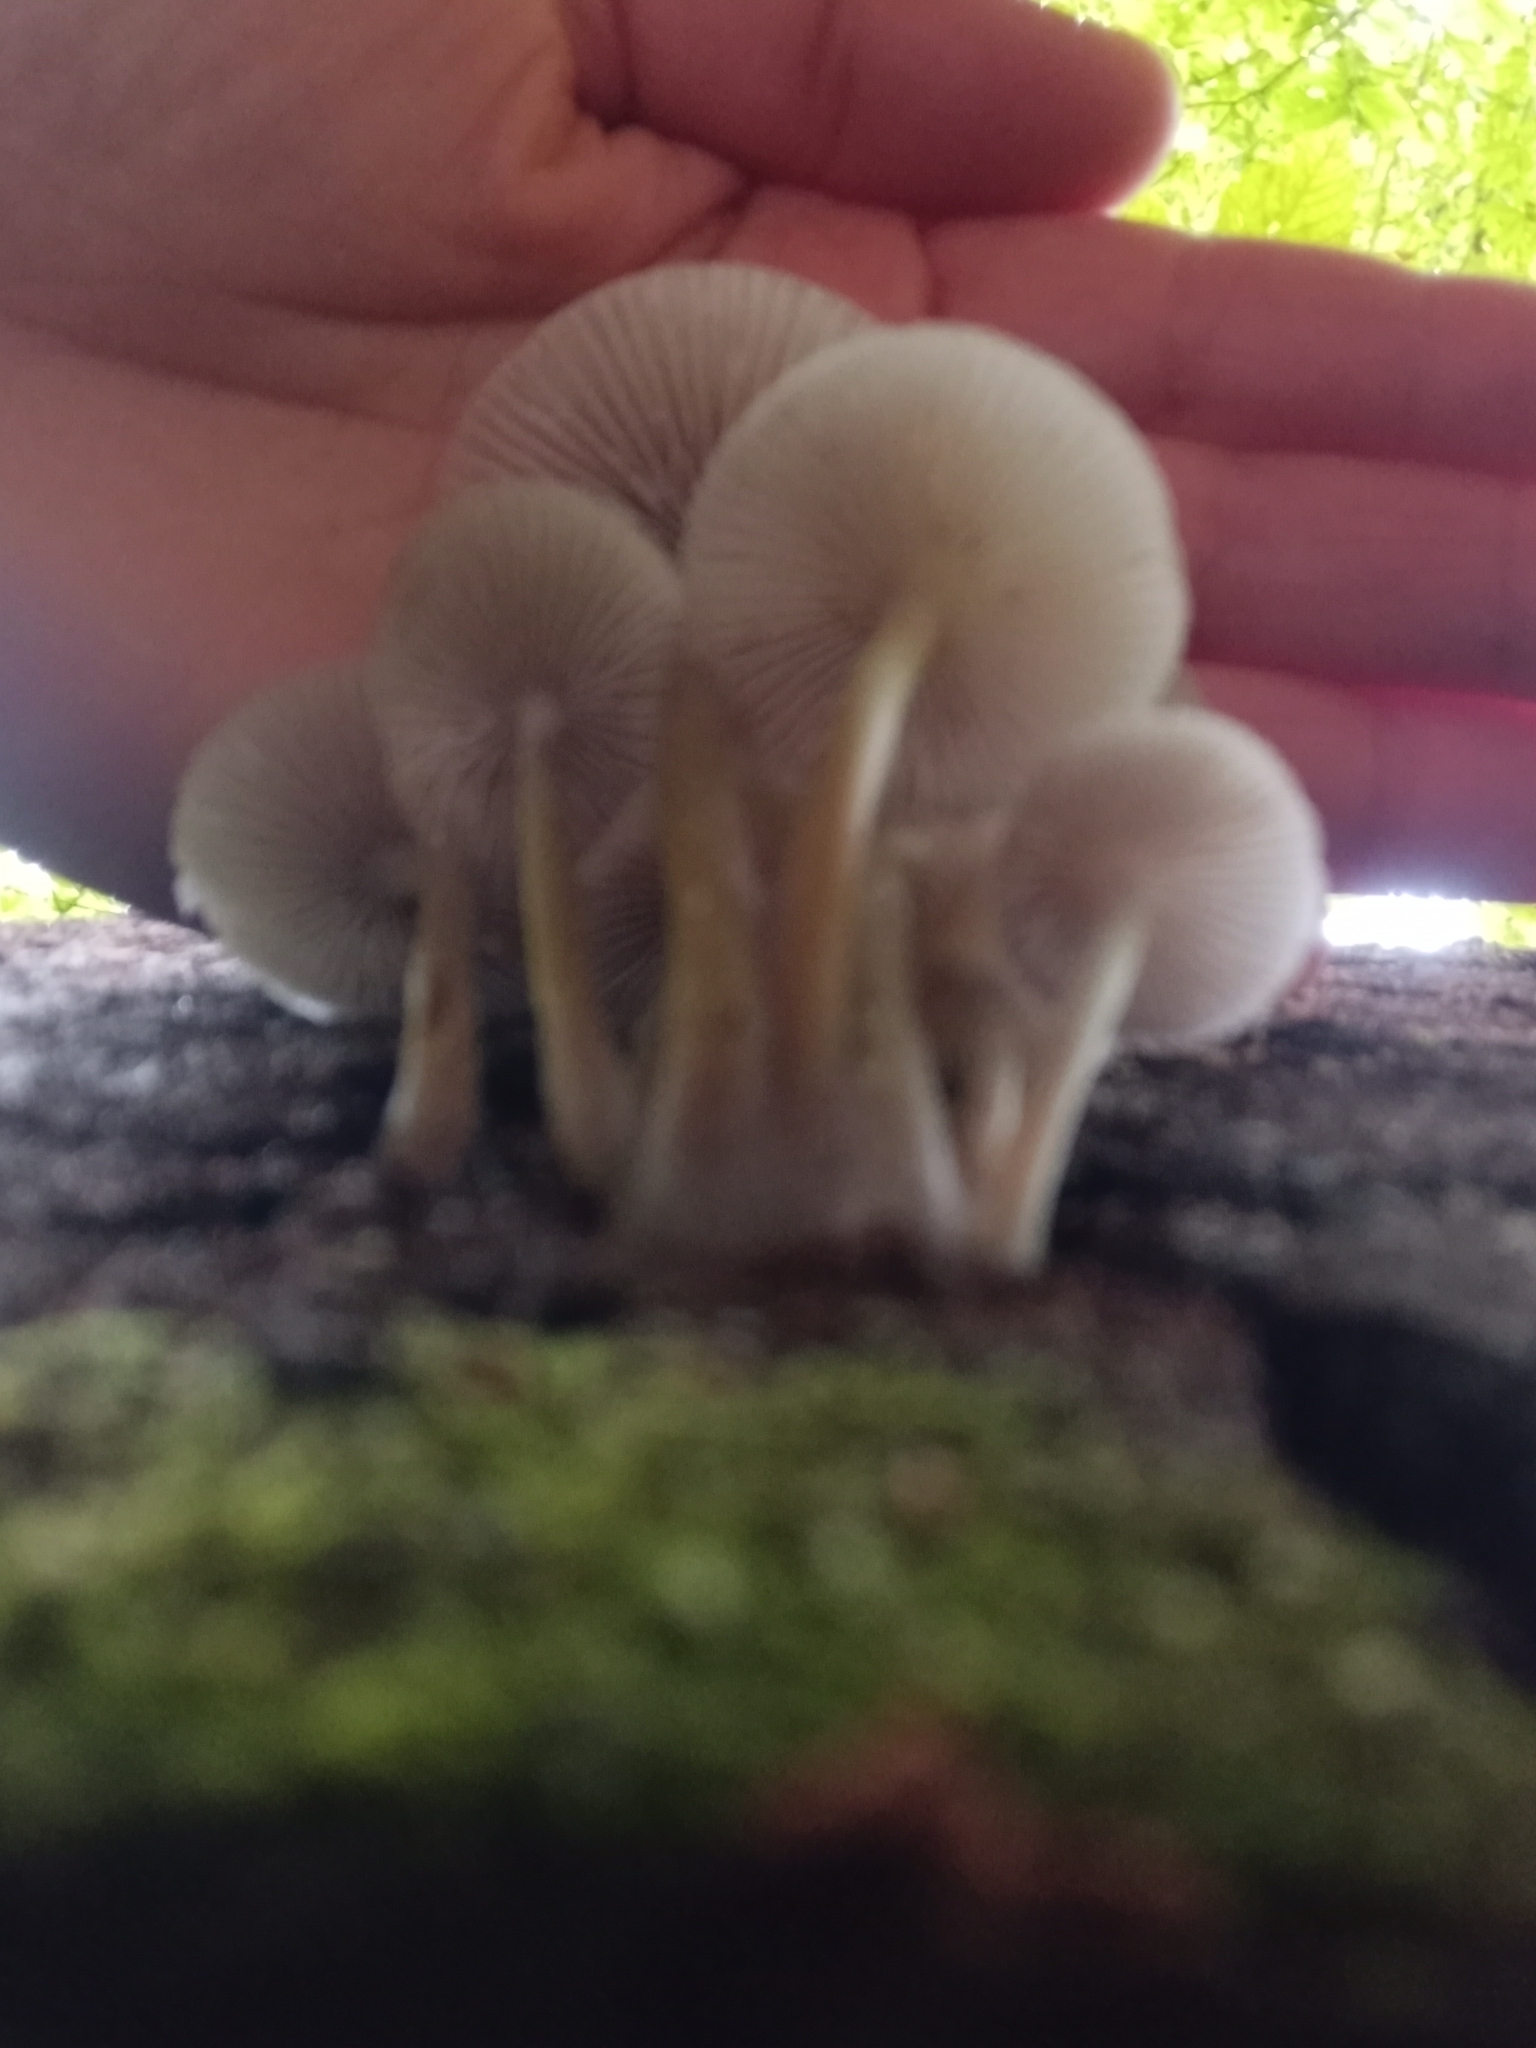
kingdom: Fungi
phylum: Basidiomycota
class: Agaricomycetes
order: Agaricales
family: Mycenaceae
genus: Mycena
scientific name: Mycena inclinata
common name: Clustered bonnet
